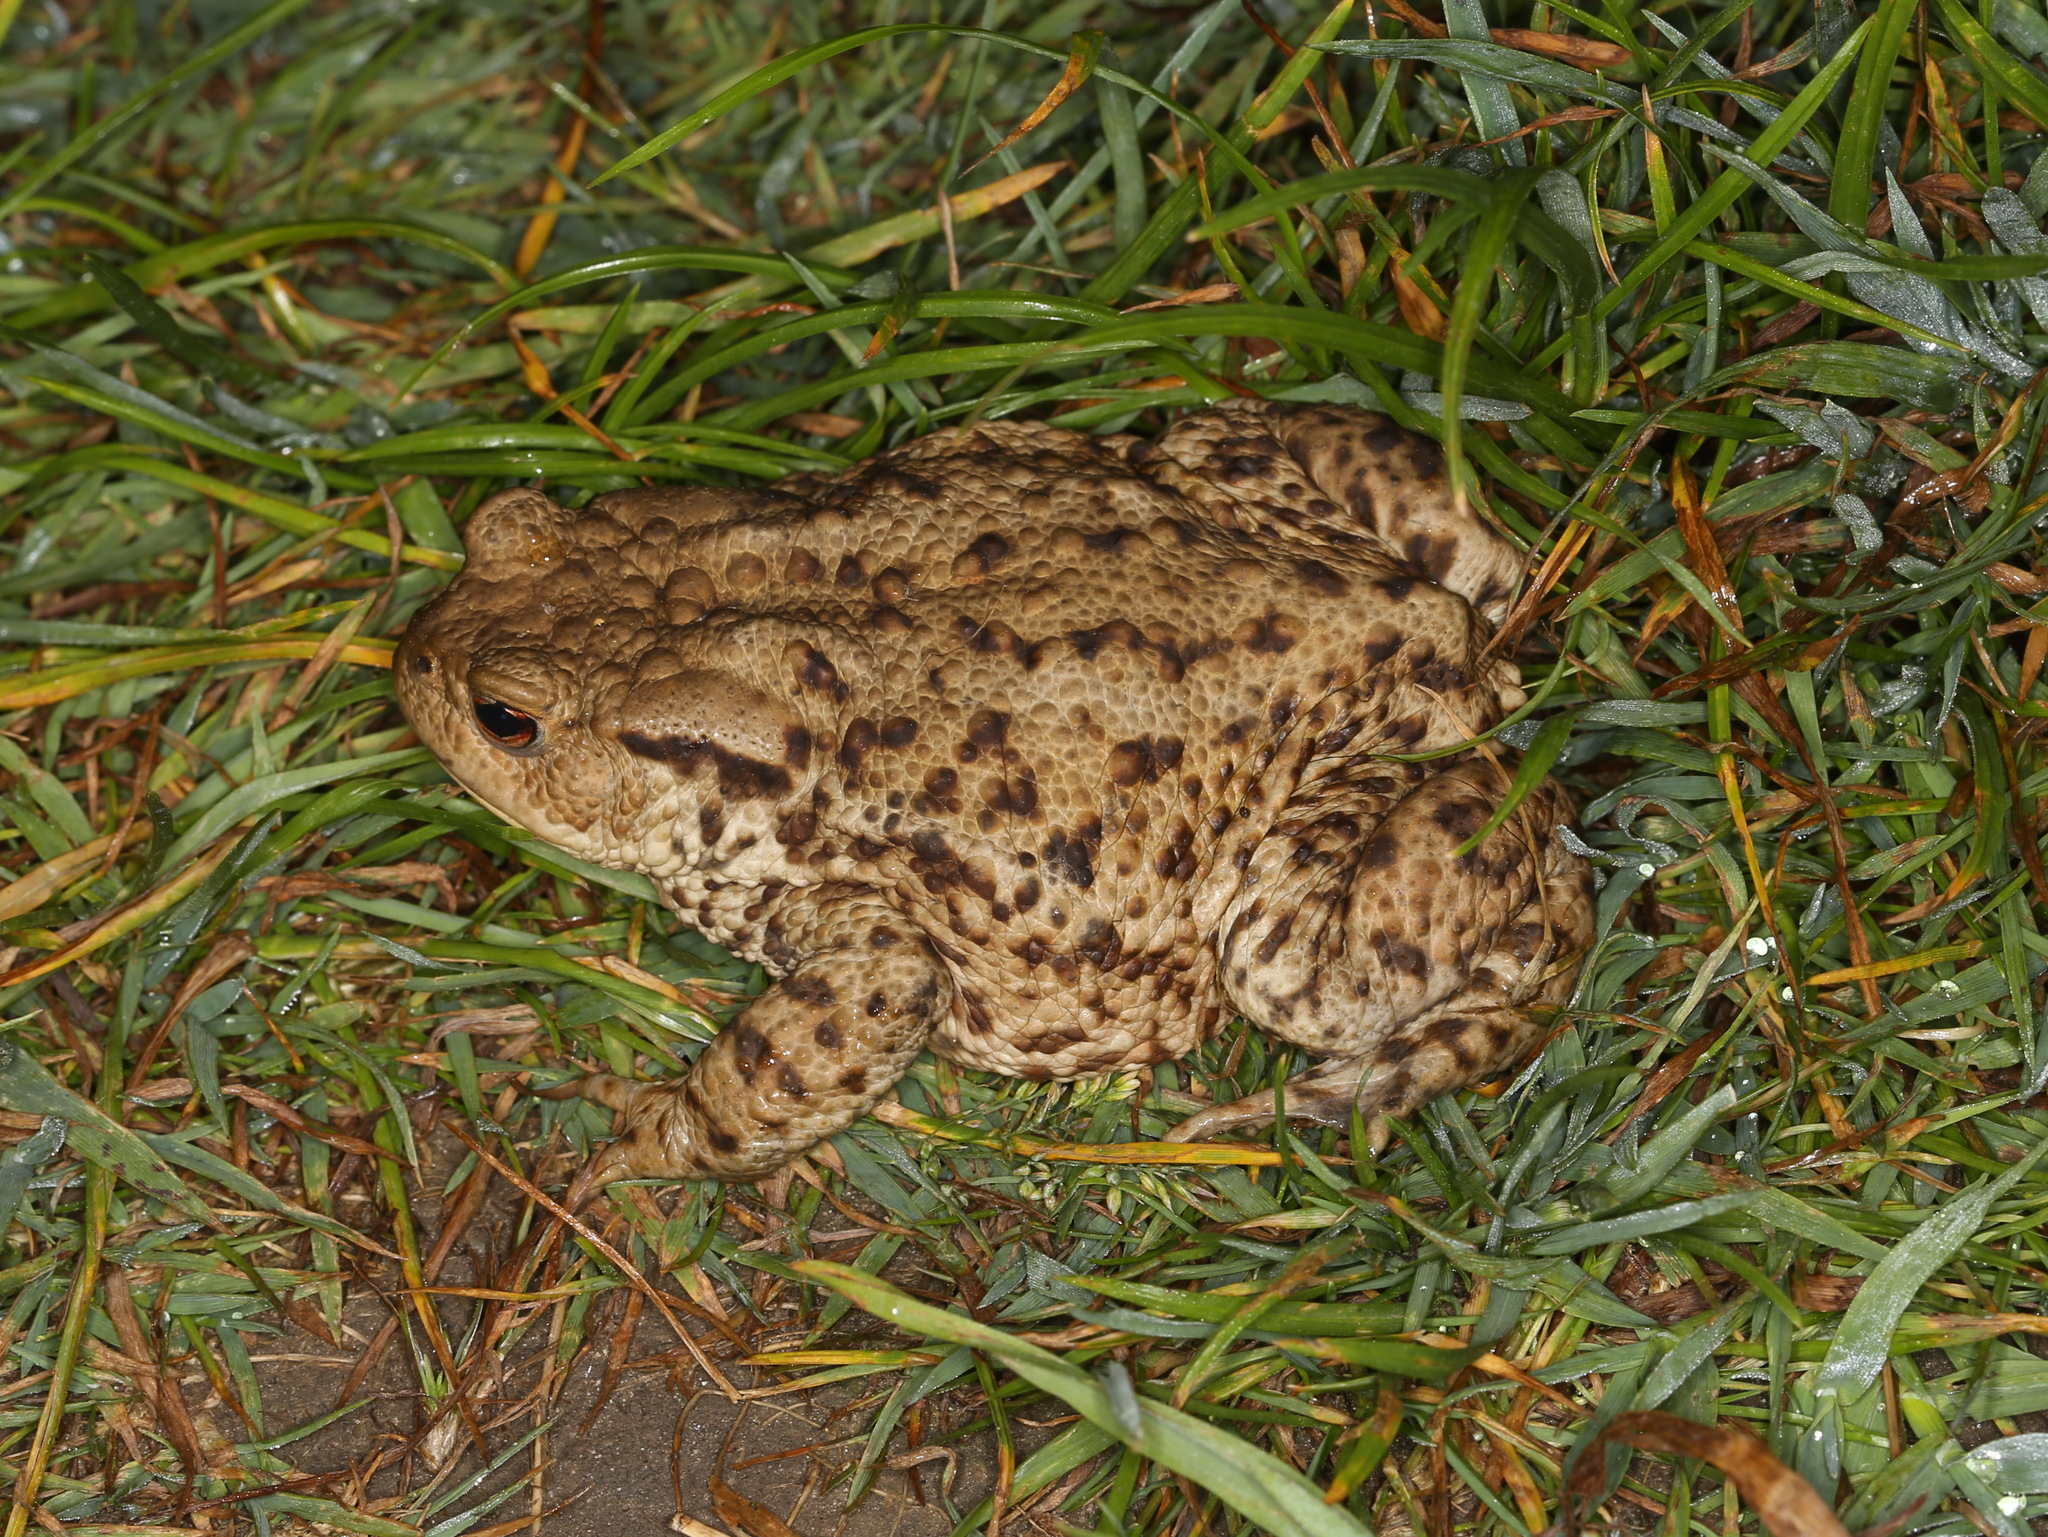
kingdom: Animalia
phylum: Chordata
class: Amphibia
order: Anura
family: Bufonidae
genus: Bufo
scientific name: Bufo bufo
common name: Common toad
